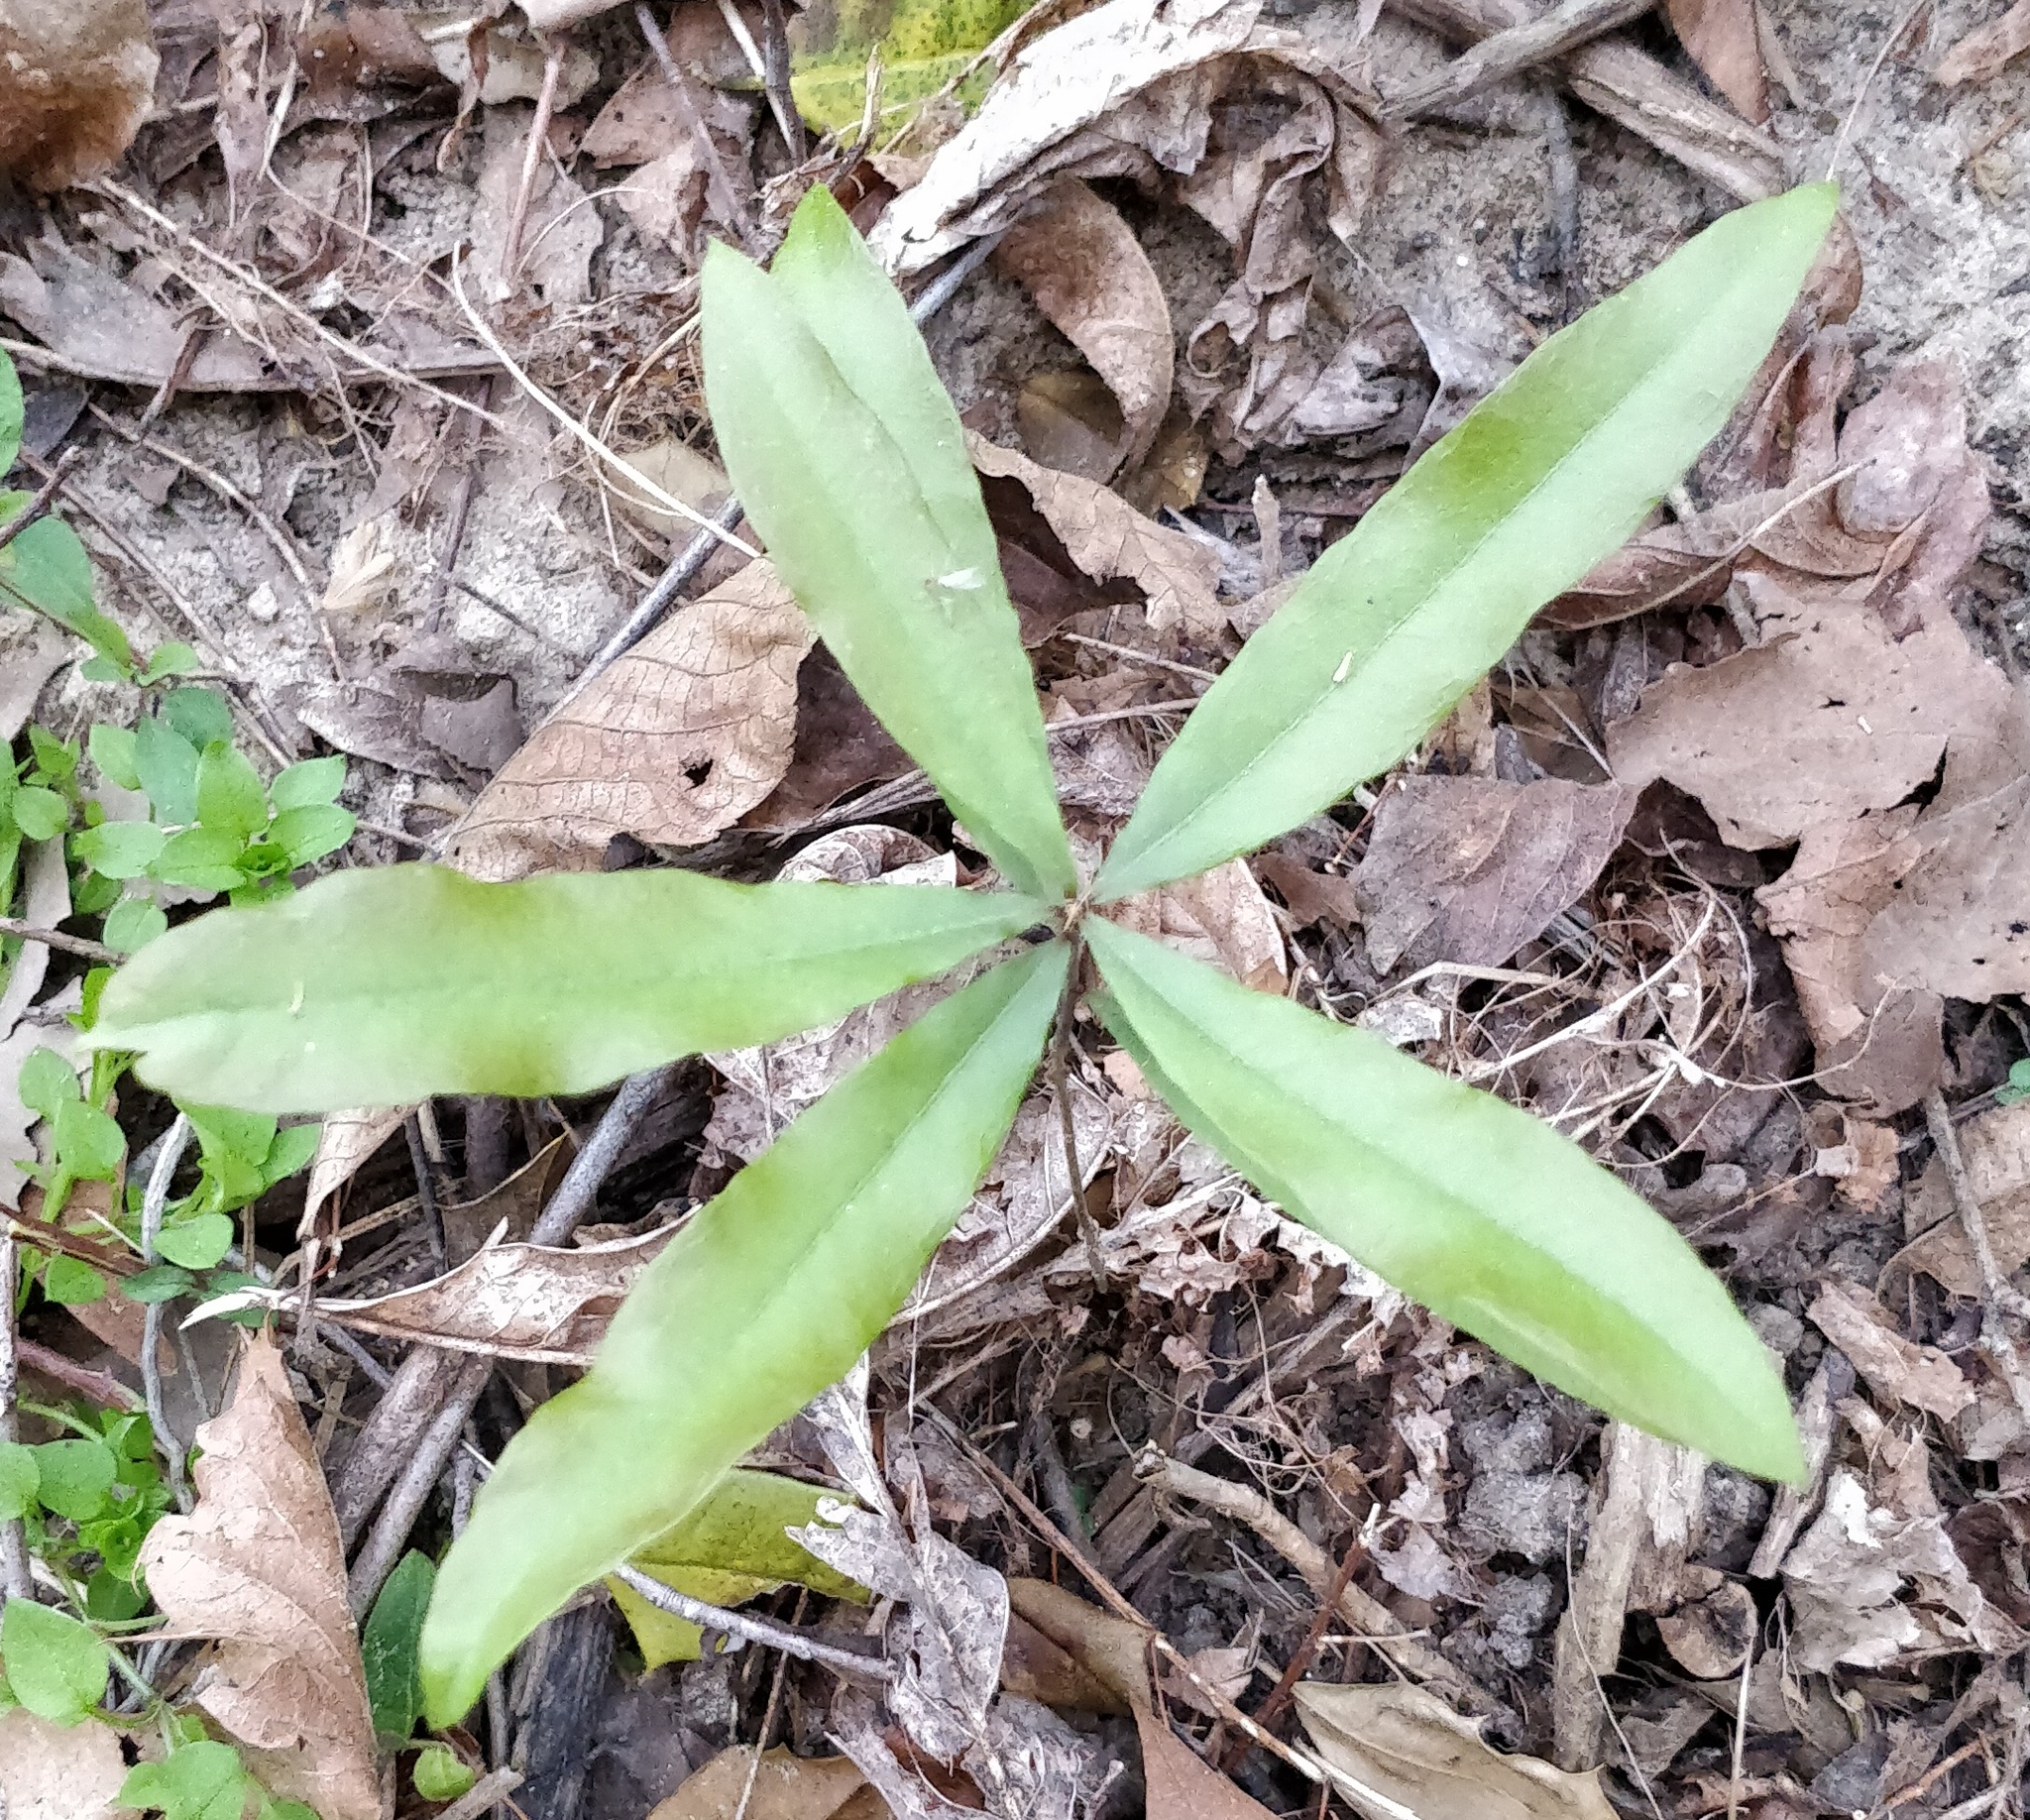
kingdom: Plantae
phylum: Tracheophyta
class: Magnoliopsida
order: Fagales
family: Fagaceae
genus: Quercus
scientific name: Quercus phellos
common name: Willow oak
